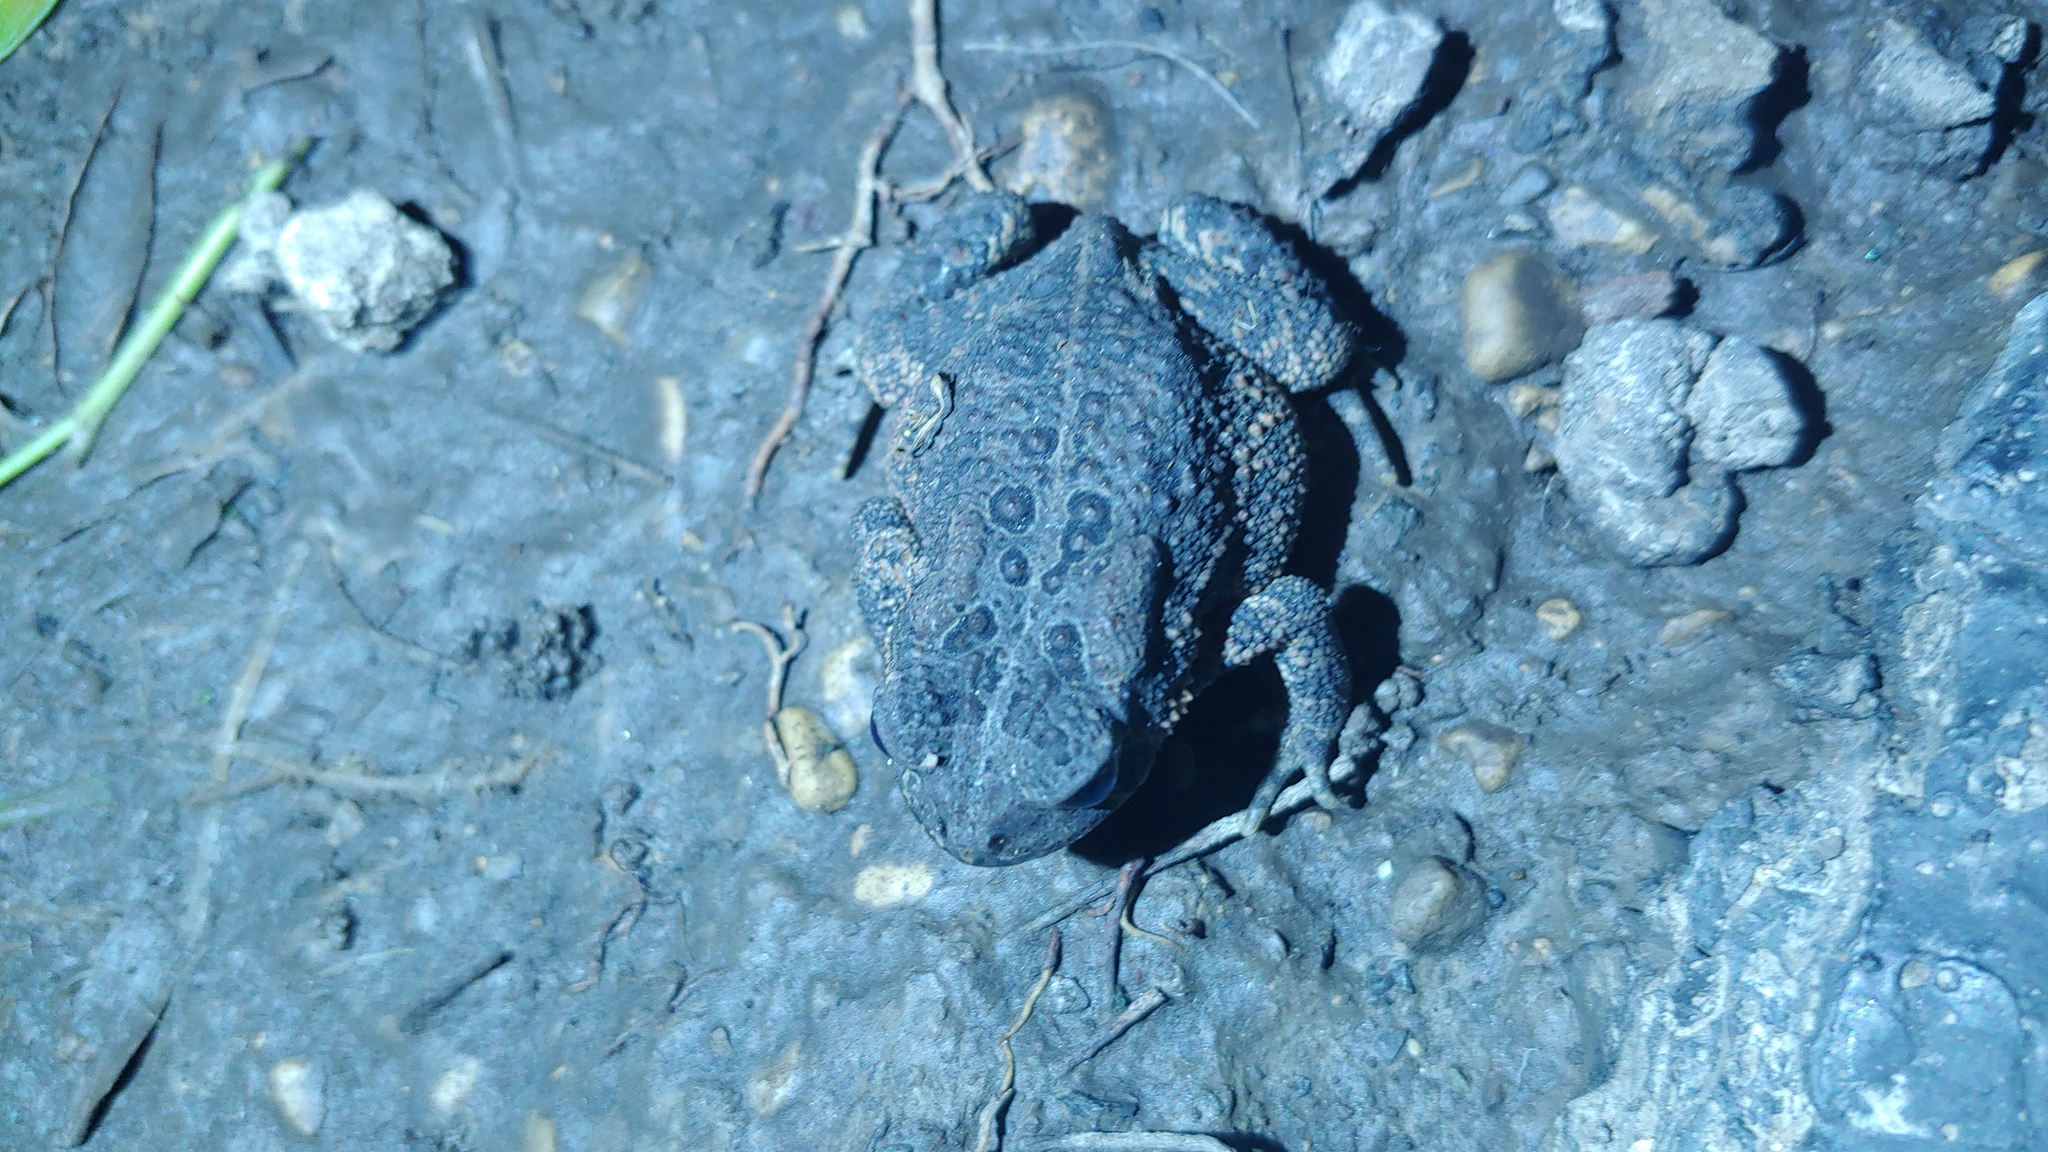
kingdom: Animalia
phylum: Chordata
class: Amphibia
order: Anura
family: Bufonidae
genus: Anaxyrus
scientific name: Anaxyrus americanus
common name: American toad
